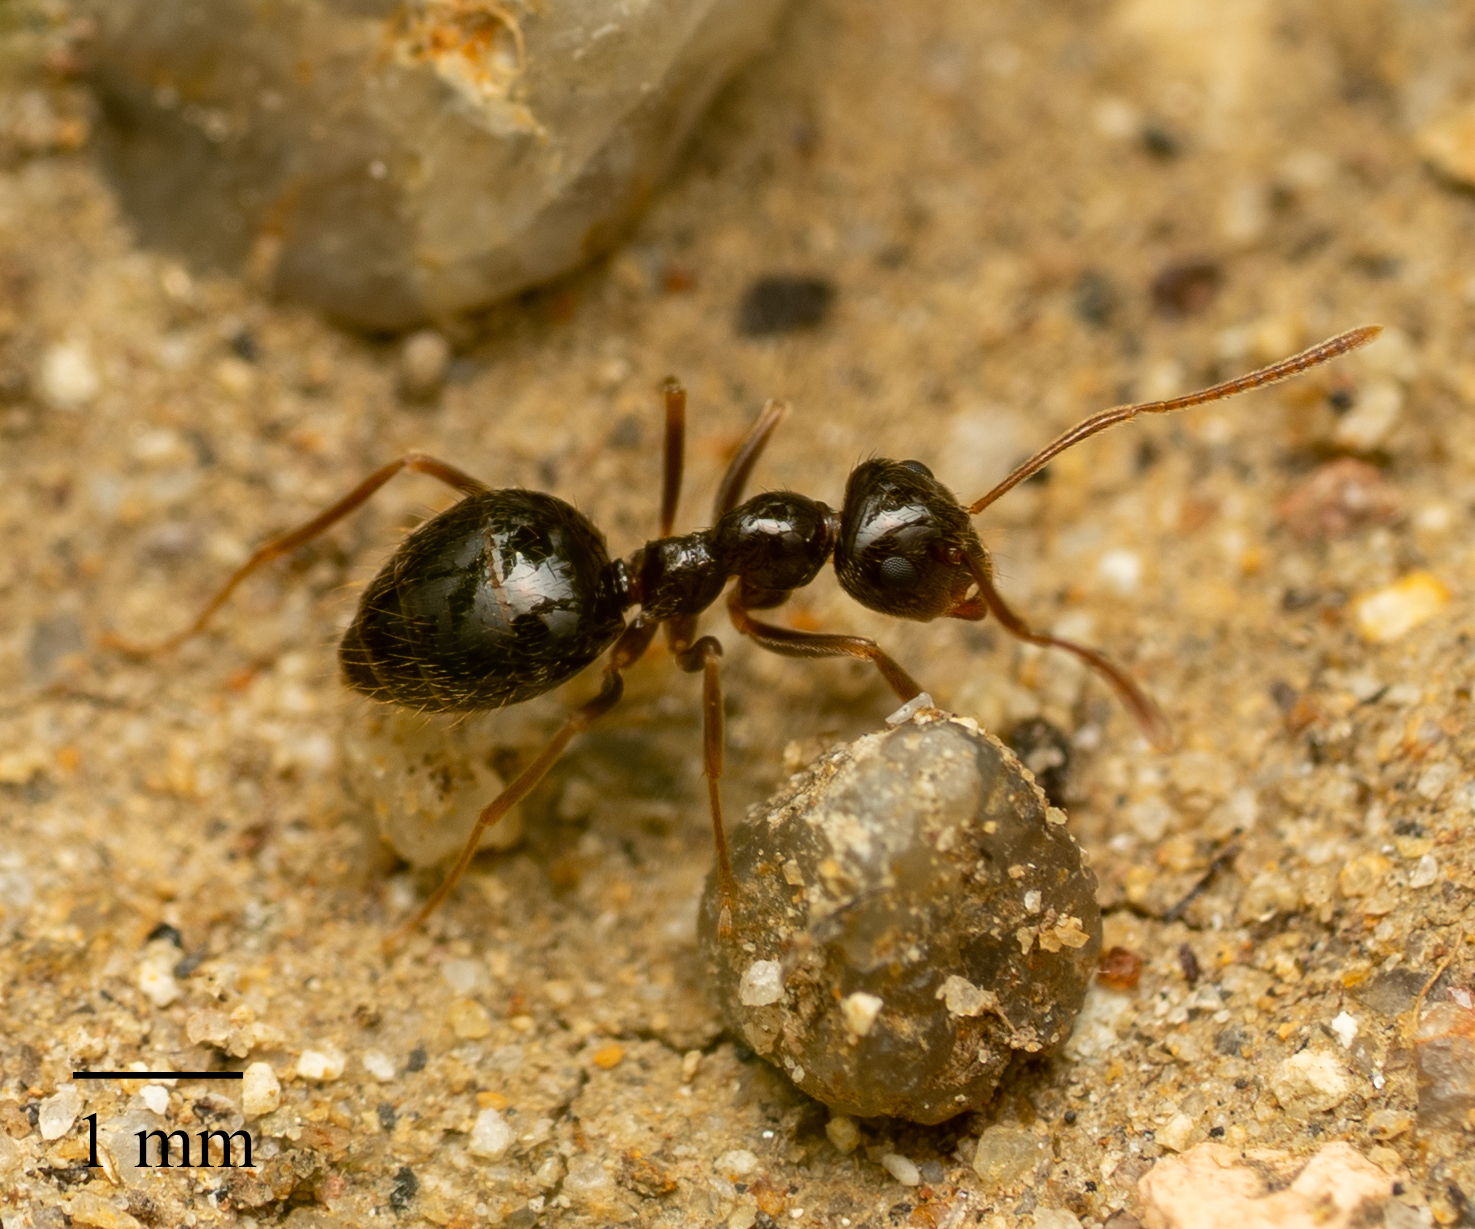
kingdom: Animalia
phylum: Arthropoda
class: Insecta
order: Hymenoptera
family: Formicidae
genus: Prenolepis
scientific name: Prenolepis imparis
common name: Small honey ant
